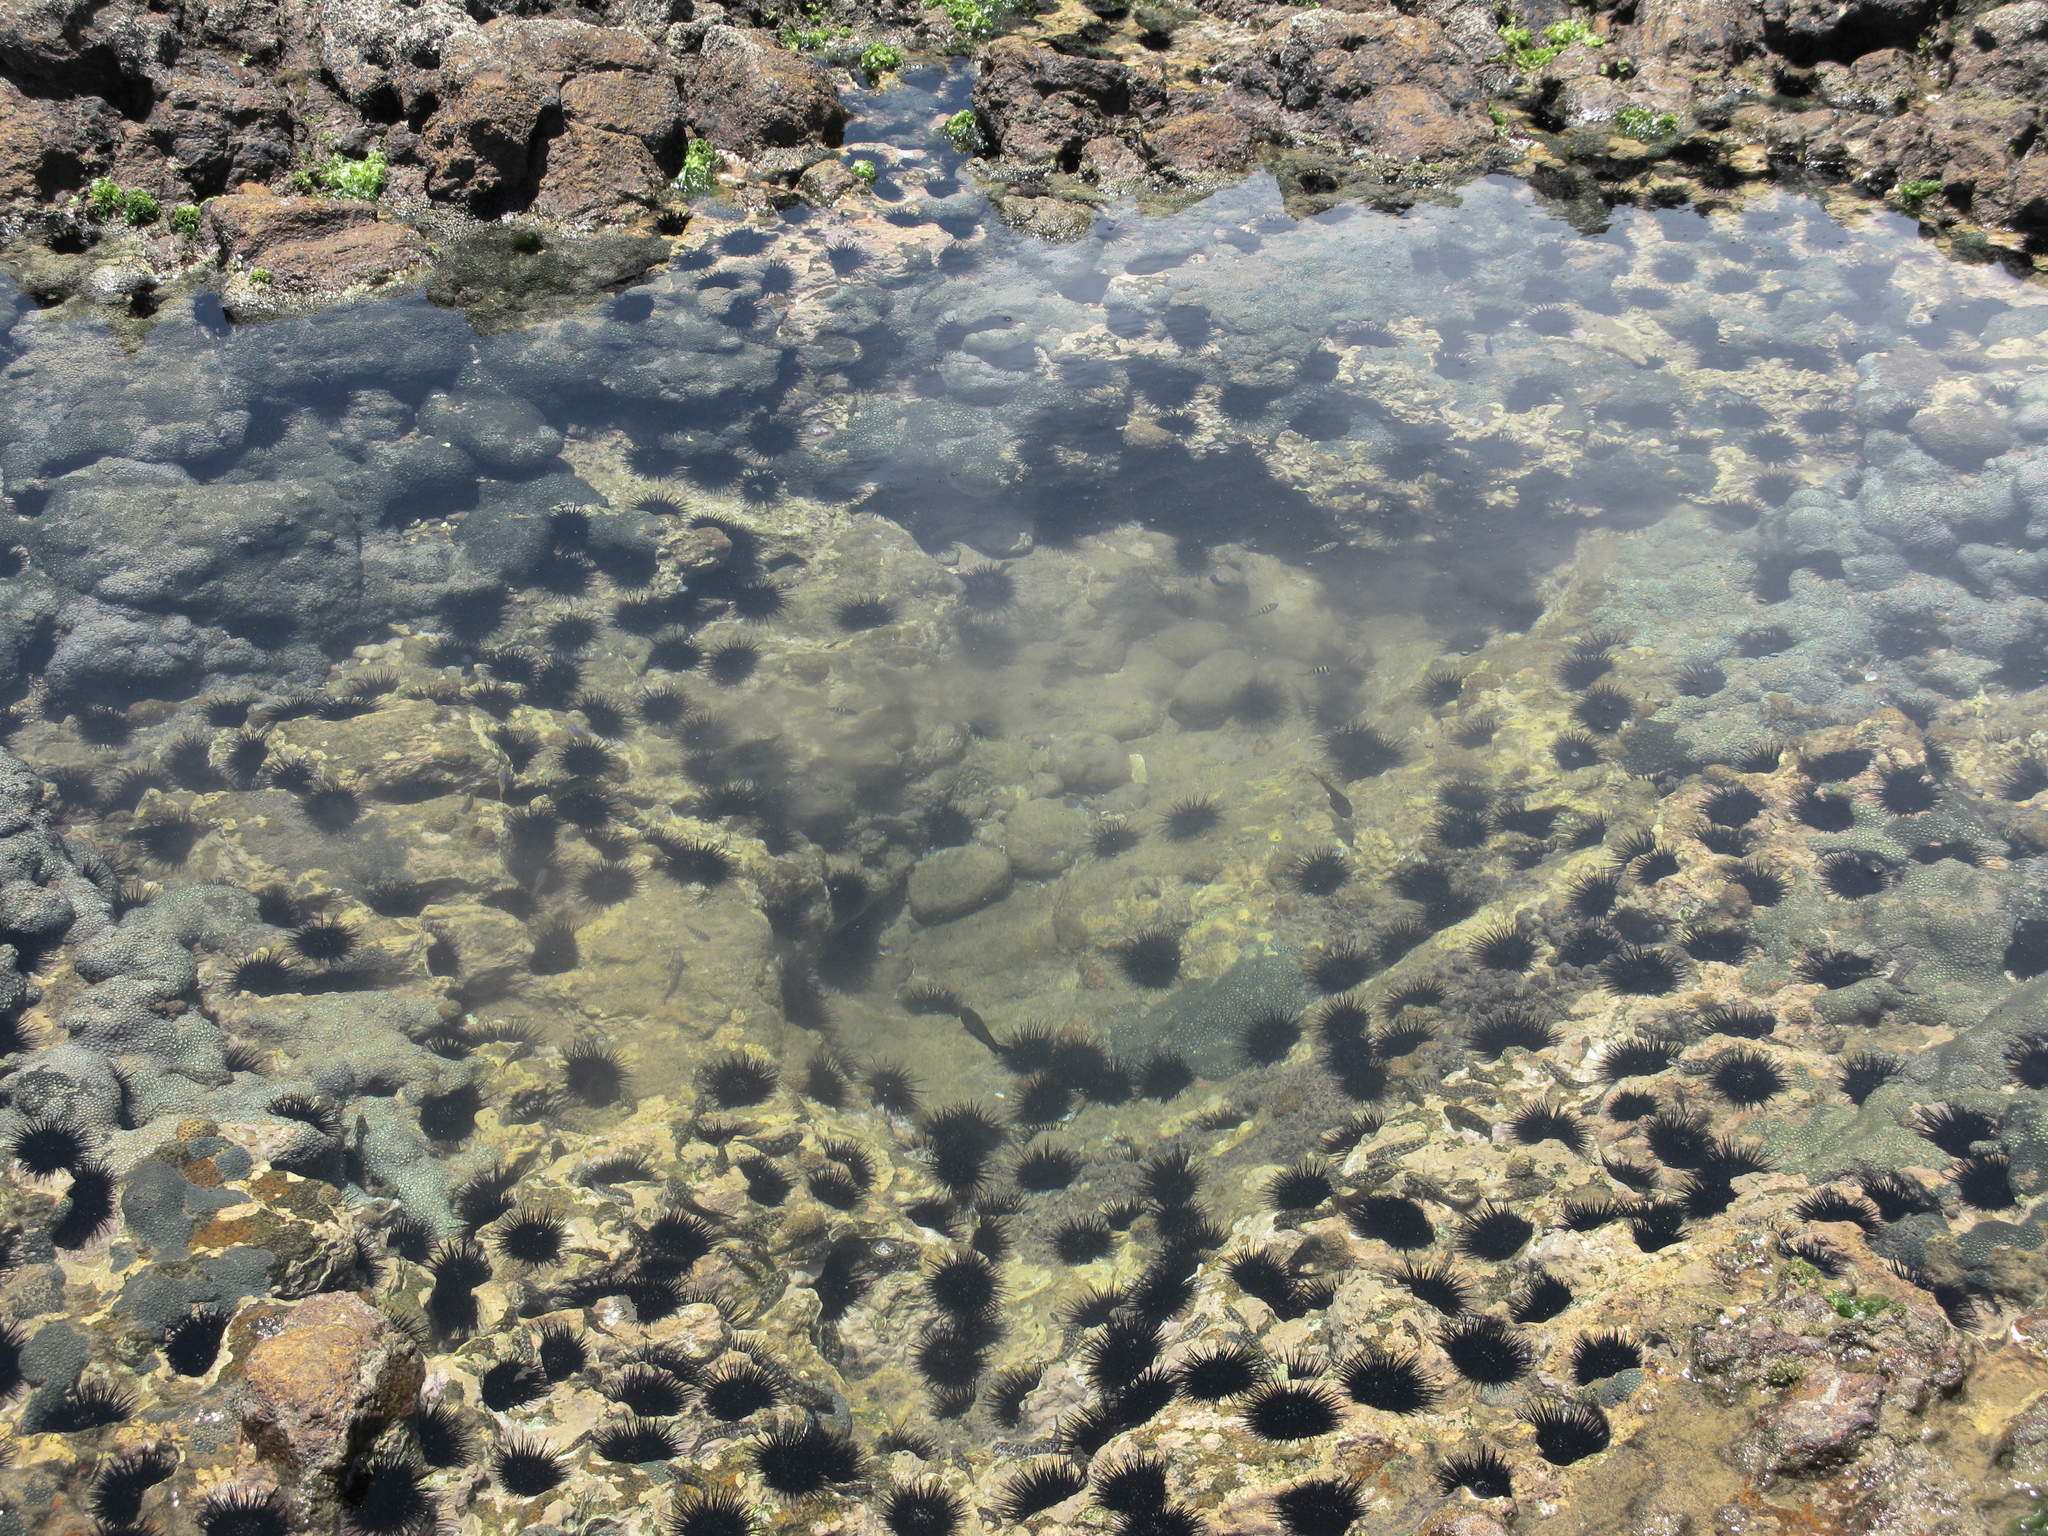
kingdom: Animalia
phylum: Echinodermata
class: Echinoidea
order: Camarodonta
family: Echinometridae
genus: Echinometra
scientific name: Echinometra lucunter
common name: Rock urchin
